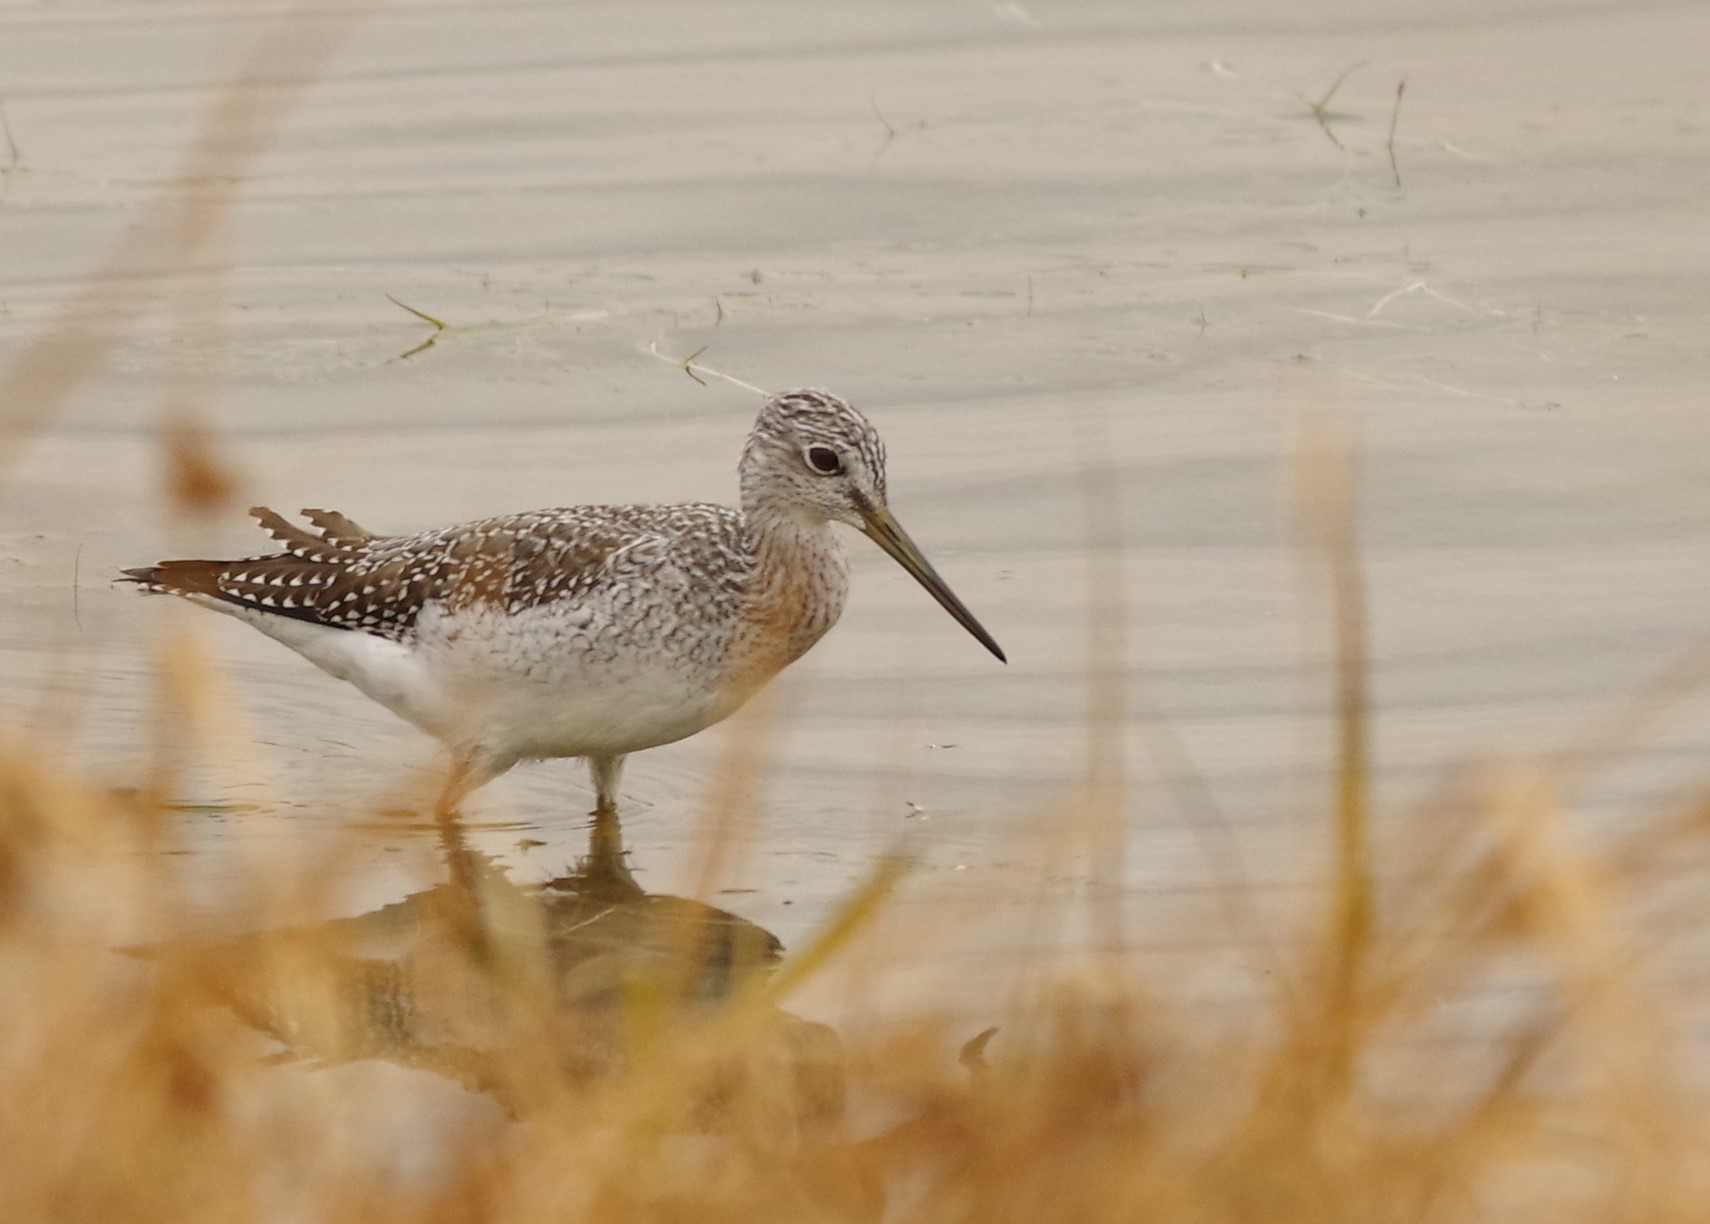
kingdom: Animalia
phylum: Chordata
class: Aves
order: Charadriiformes
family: Scolopacidae
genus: Tringa
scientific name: Tringa melanoleuca
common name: Greater yellowlegs
